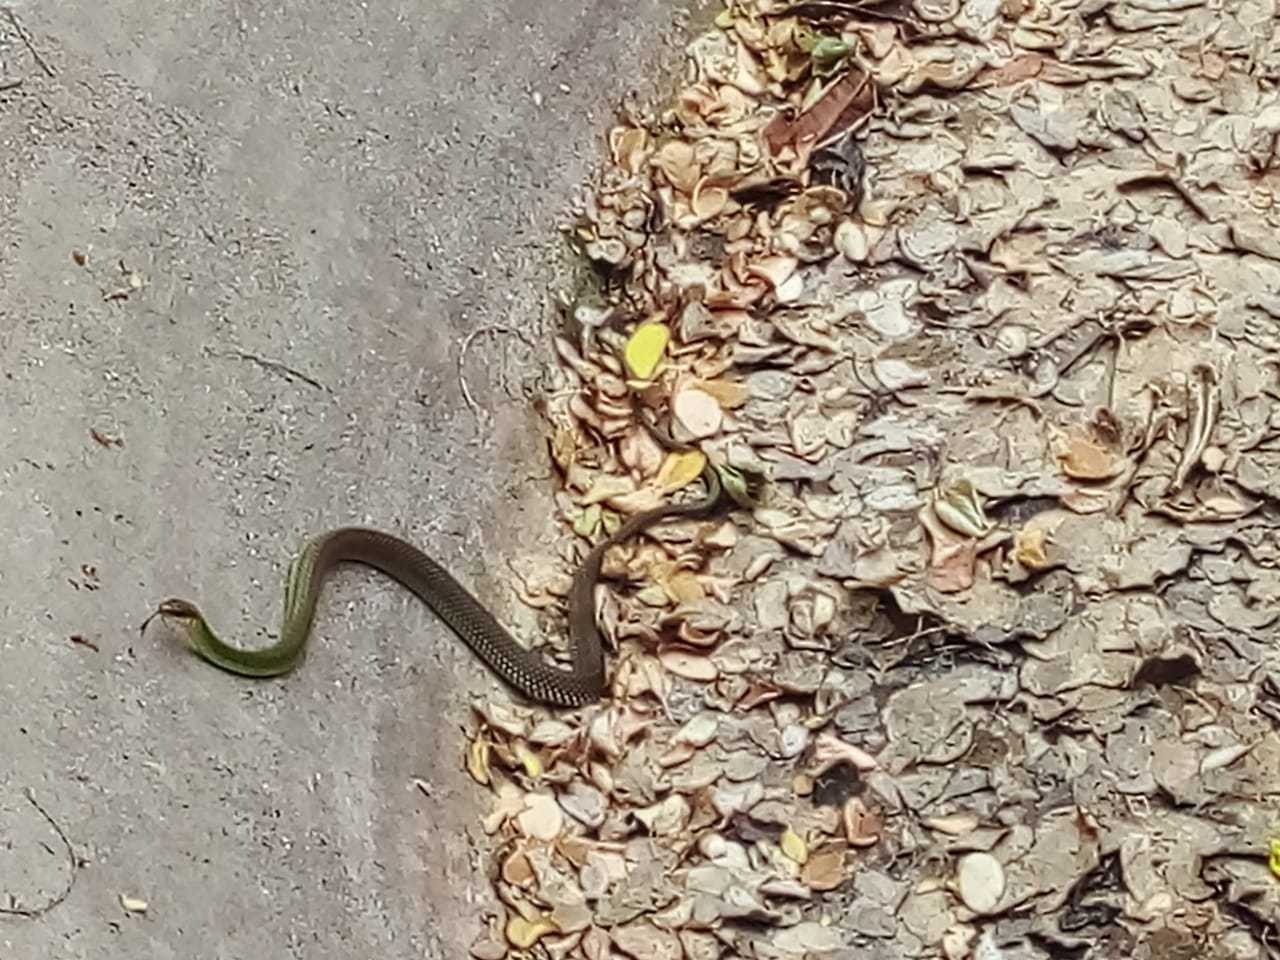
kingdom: Animalia
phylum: Chordata
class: Squamata
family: Colubridae
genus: Drymobius
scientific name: Drymobius margaritiferus
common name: Central american speckled racer
